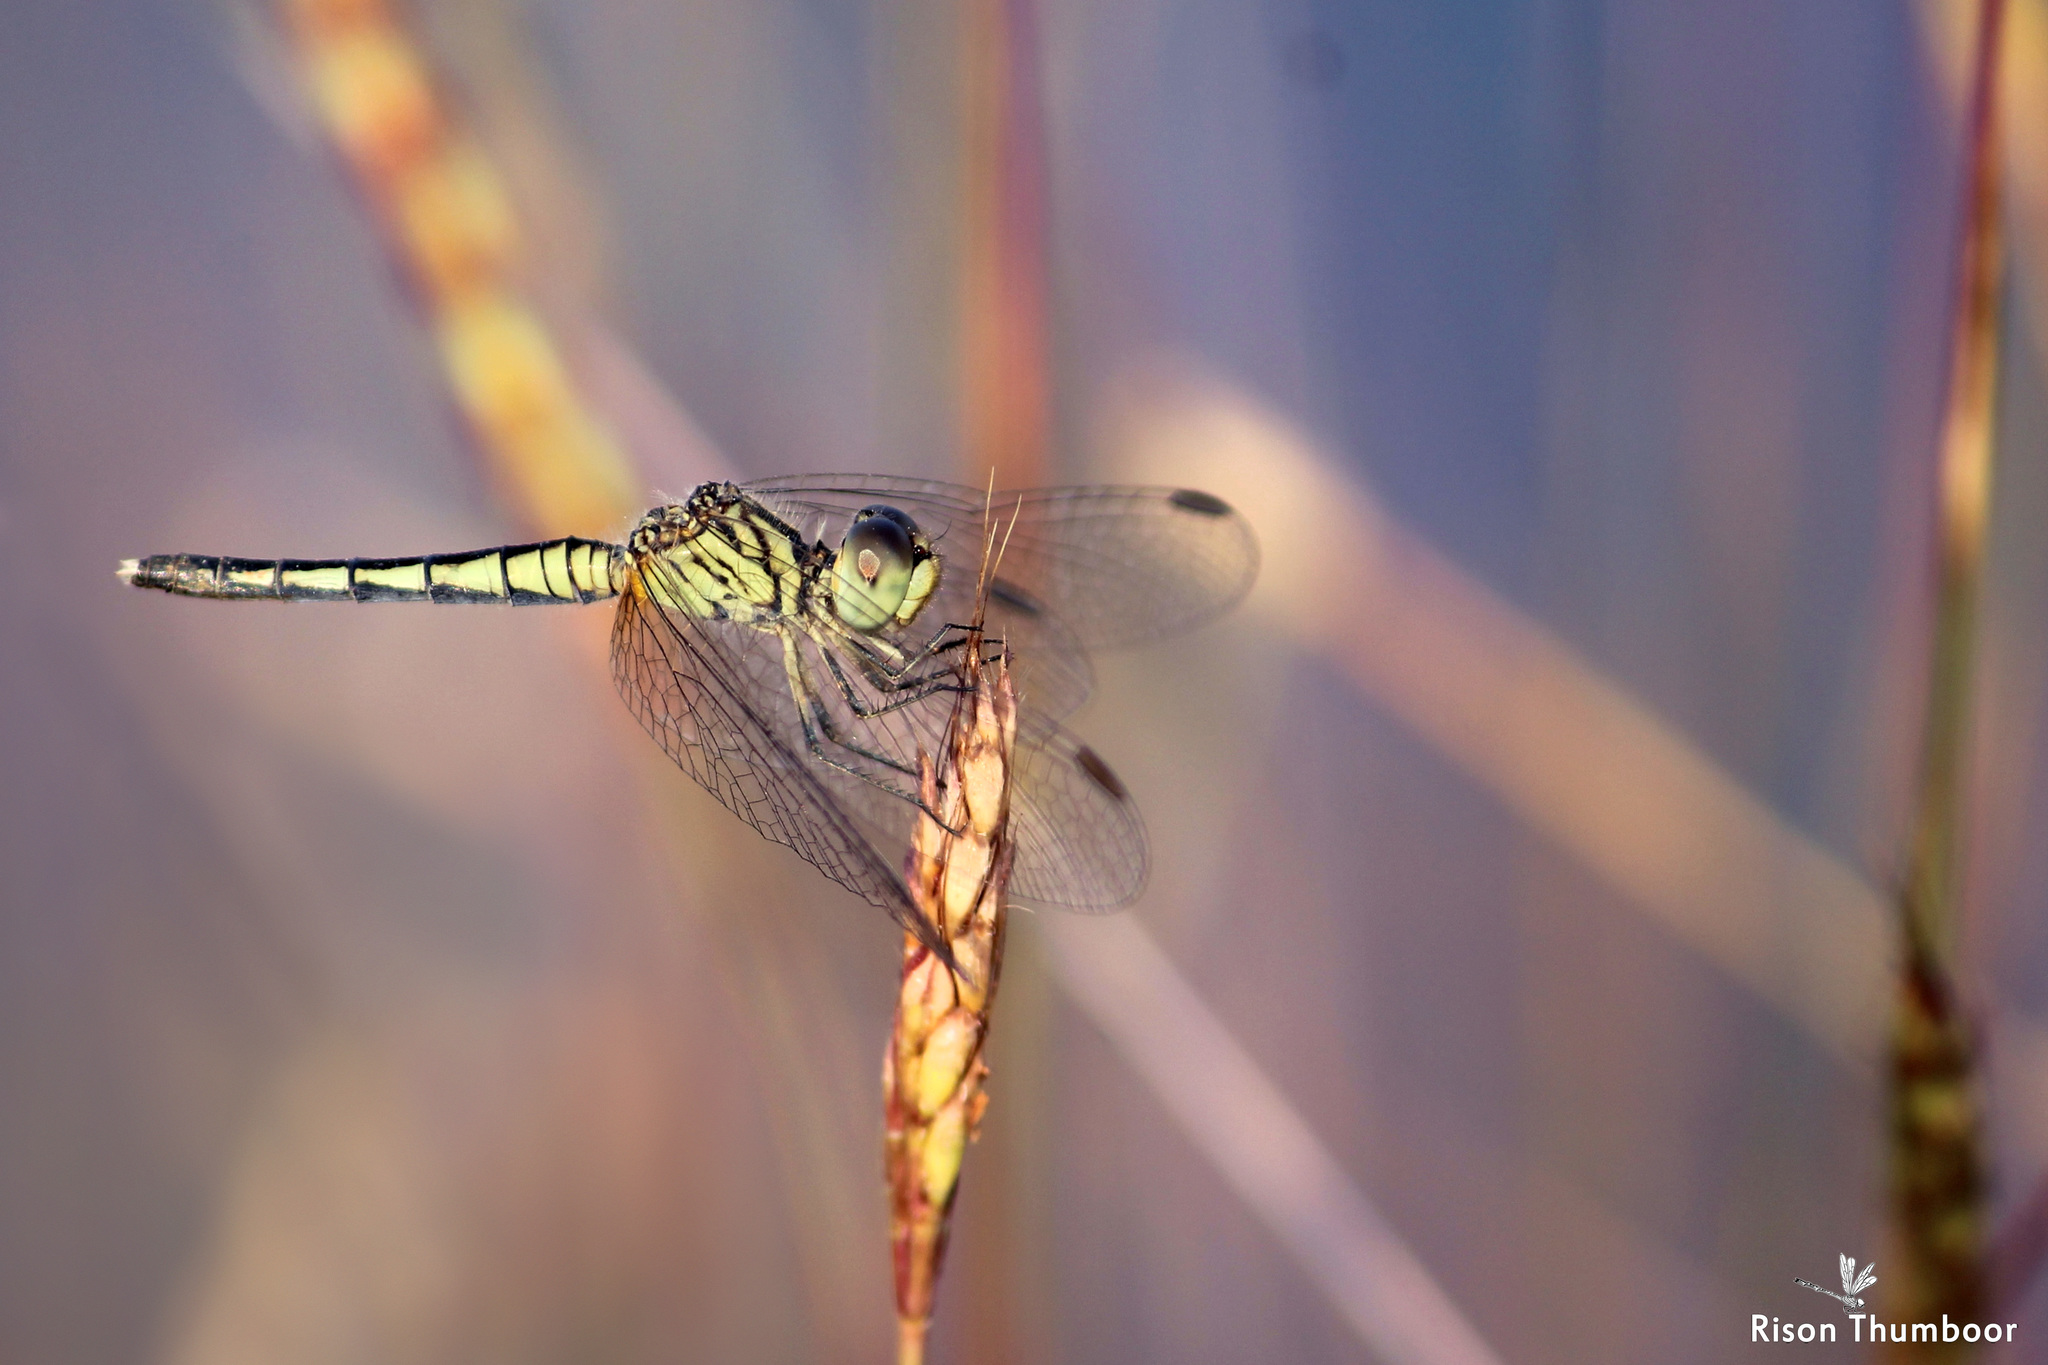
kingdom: Animalia
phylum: Arthropoda
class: Insecta
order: Odonata
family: Libellulidae
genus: Diplacodes
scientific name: Diplacodes nebulosa
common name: Black-tipped percher
